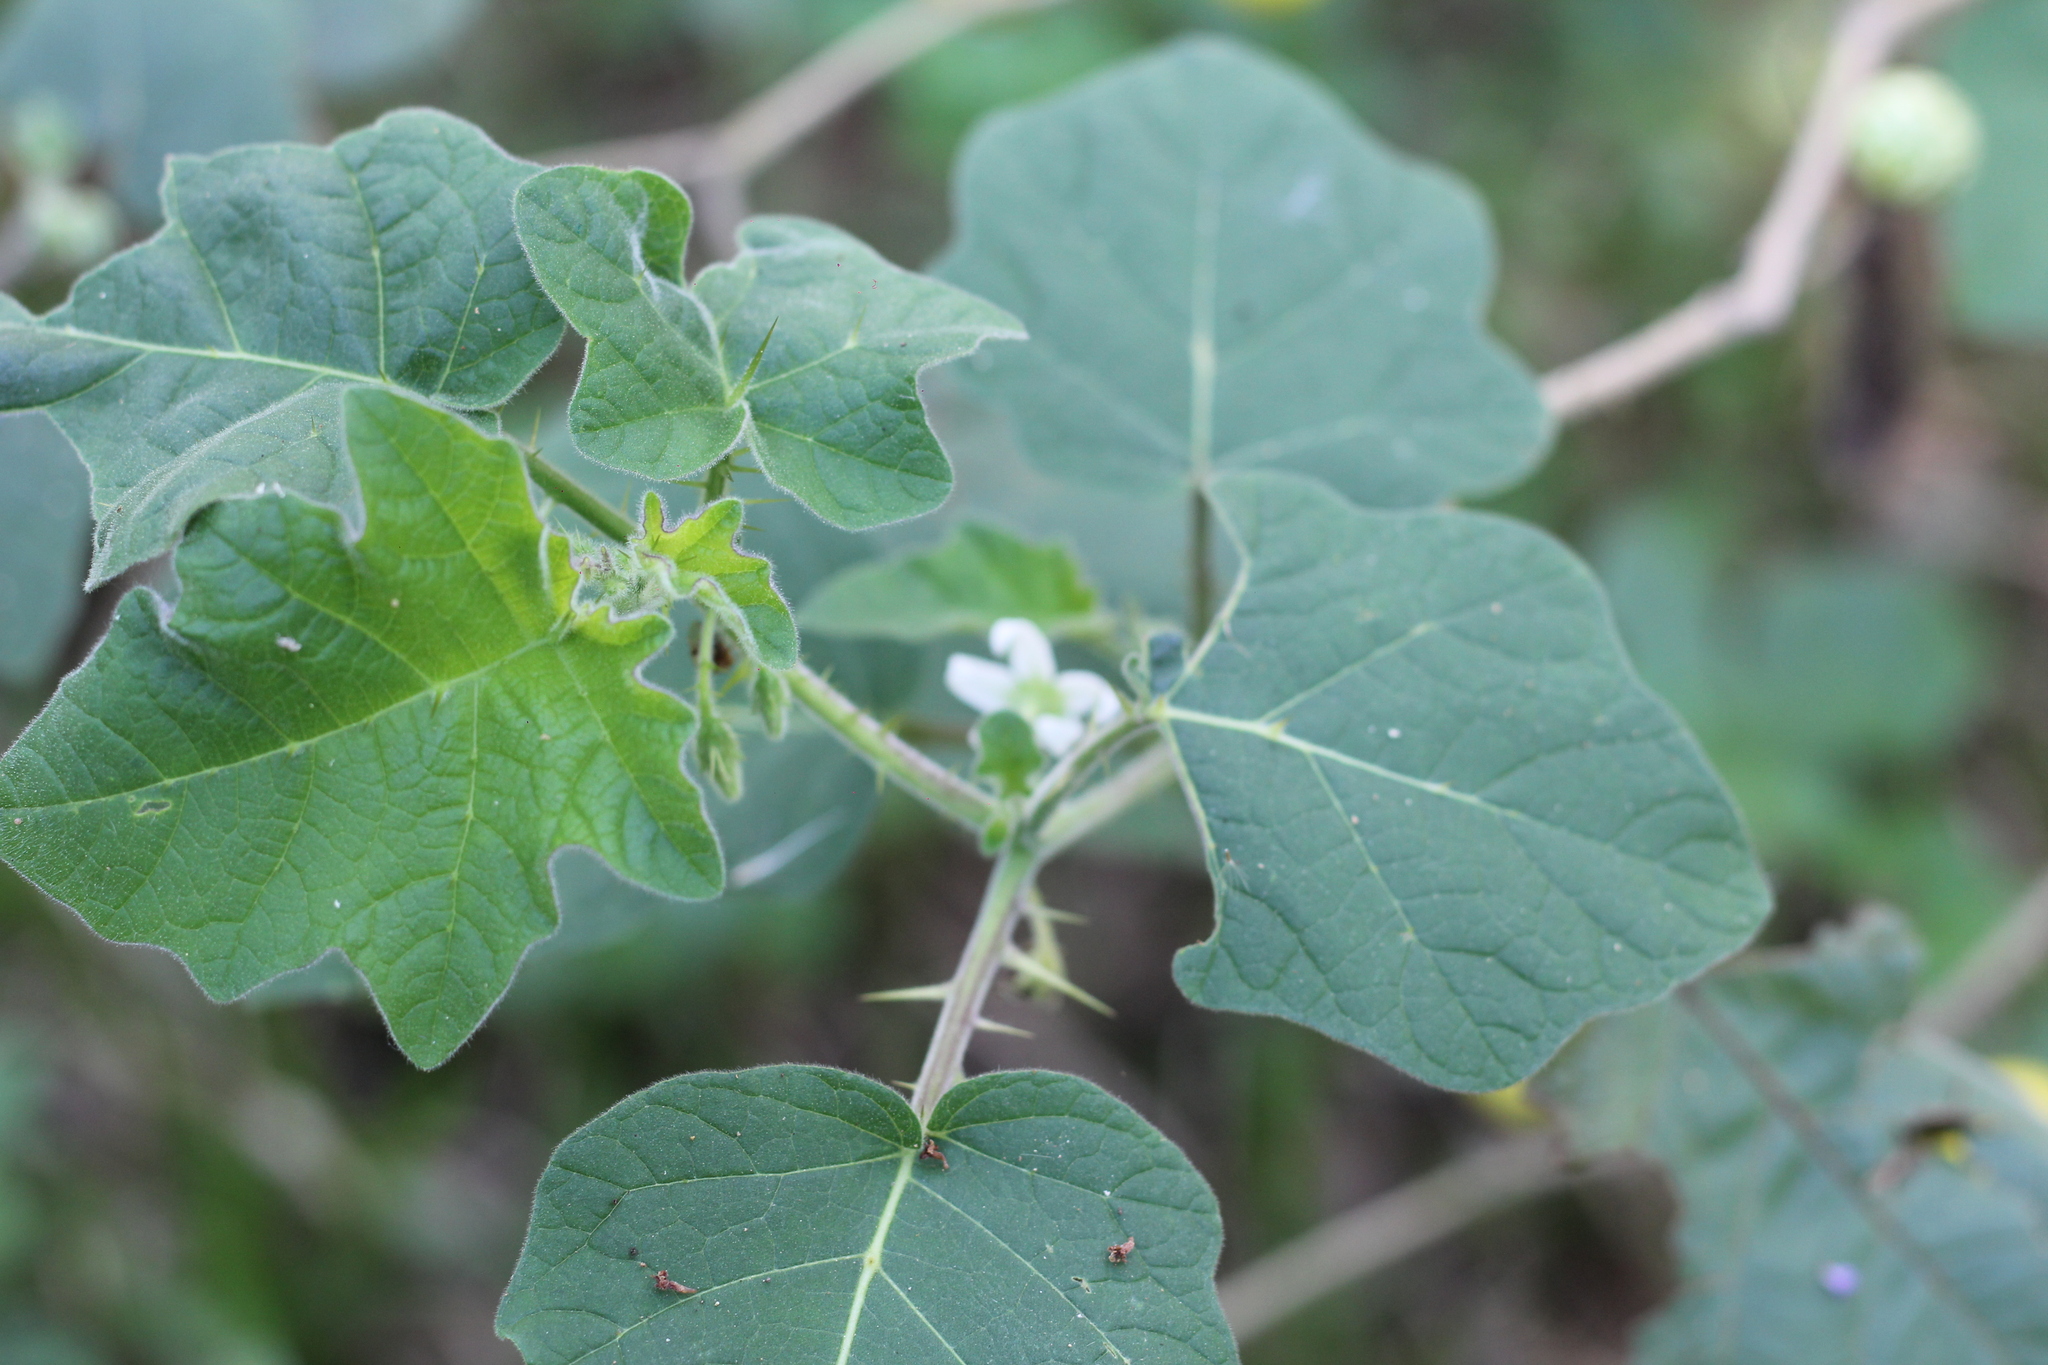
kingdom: Plantae
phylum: Tracheophyta
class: Magnoliopsida
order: Solanales
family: Solanaceae
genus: Solanum
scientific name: Solanum viarum
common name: Tropical soda apple
